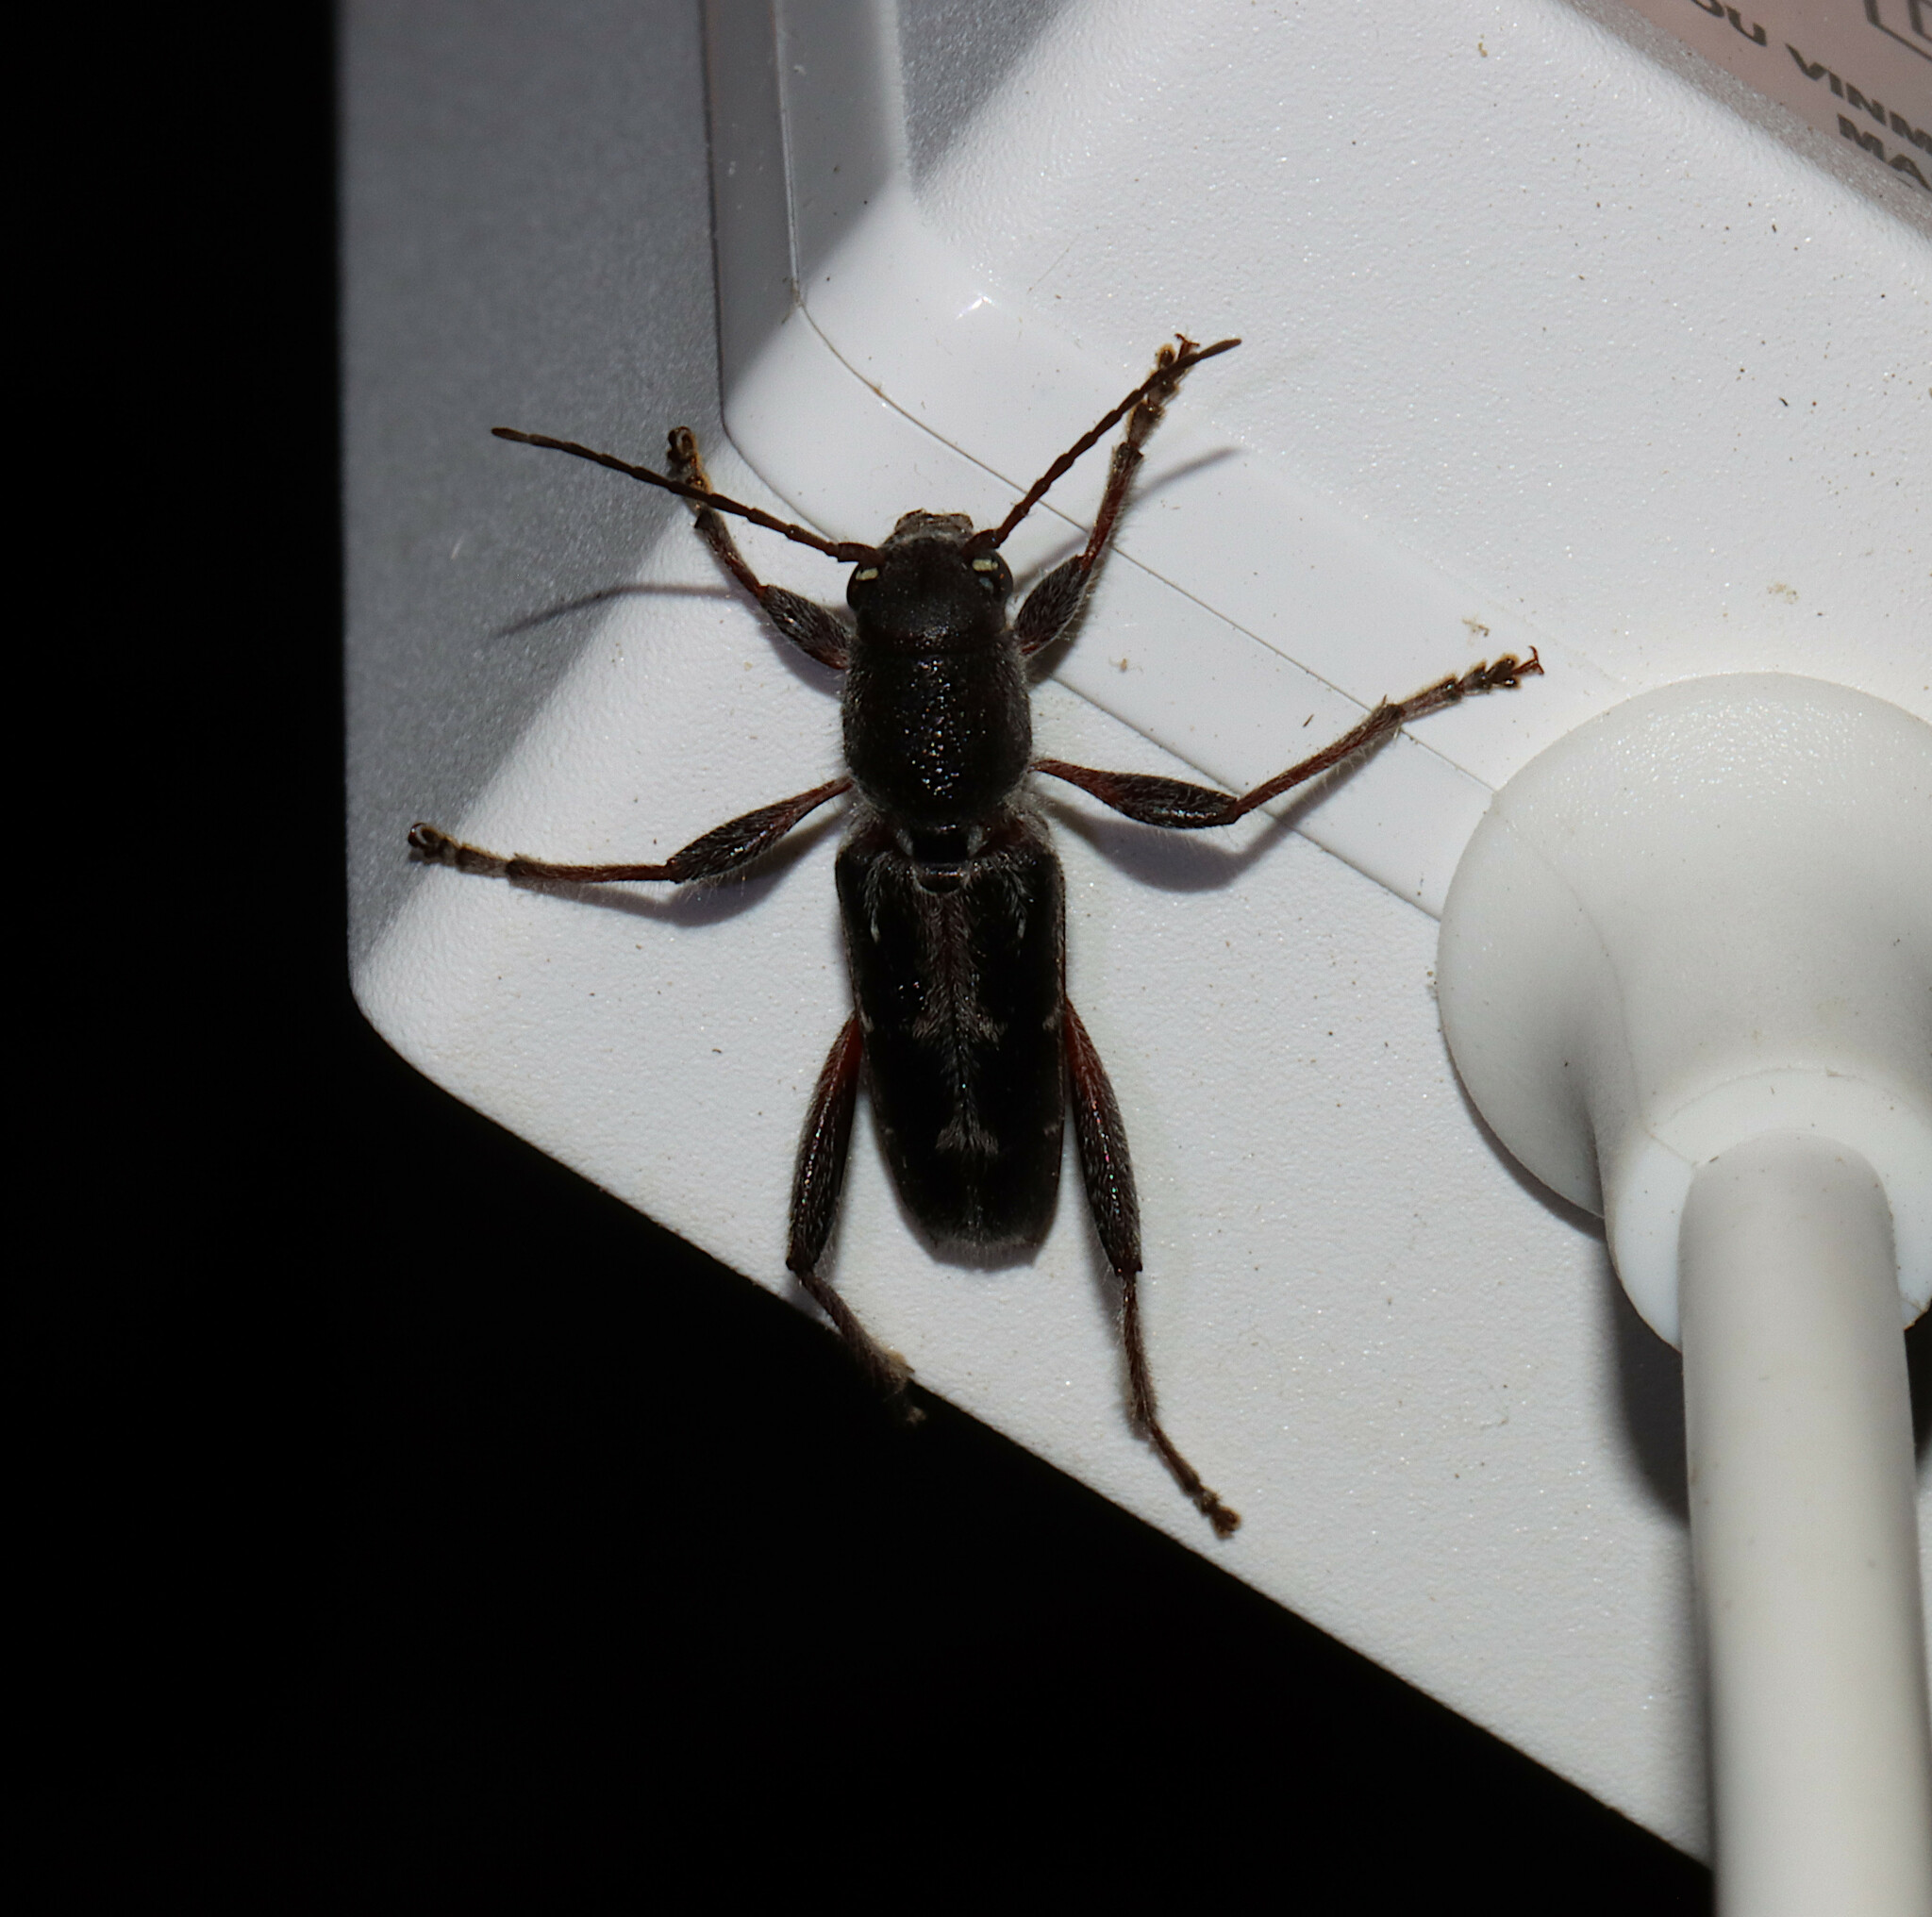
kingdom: Animalia
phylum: Arthropoda
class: Insecta
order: Coleoptera
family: Cerambycidae
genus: Xylotrechus
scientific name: Xylotrechus sagittatus
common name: Arrowhead borer
